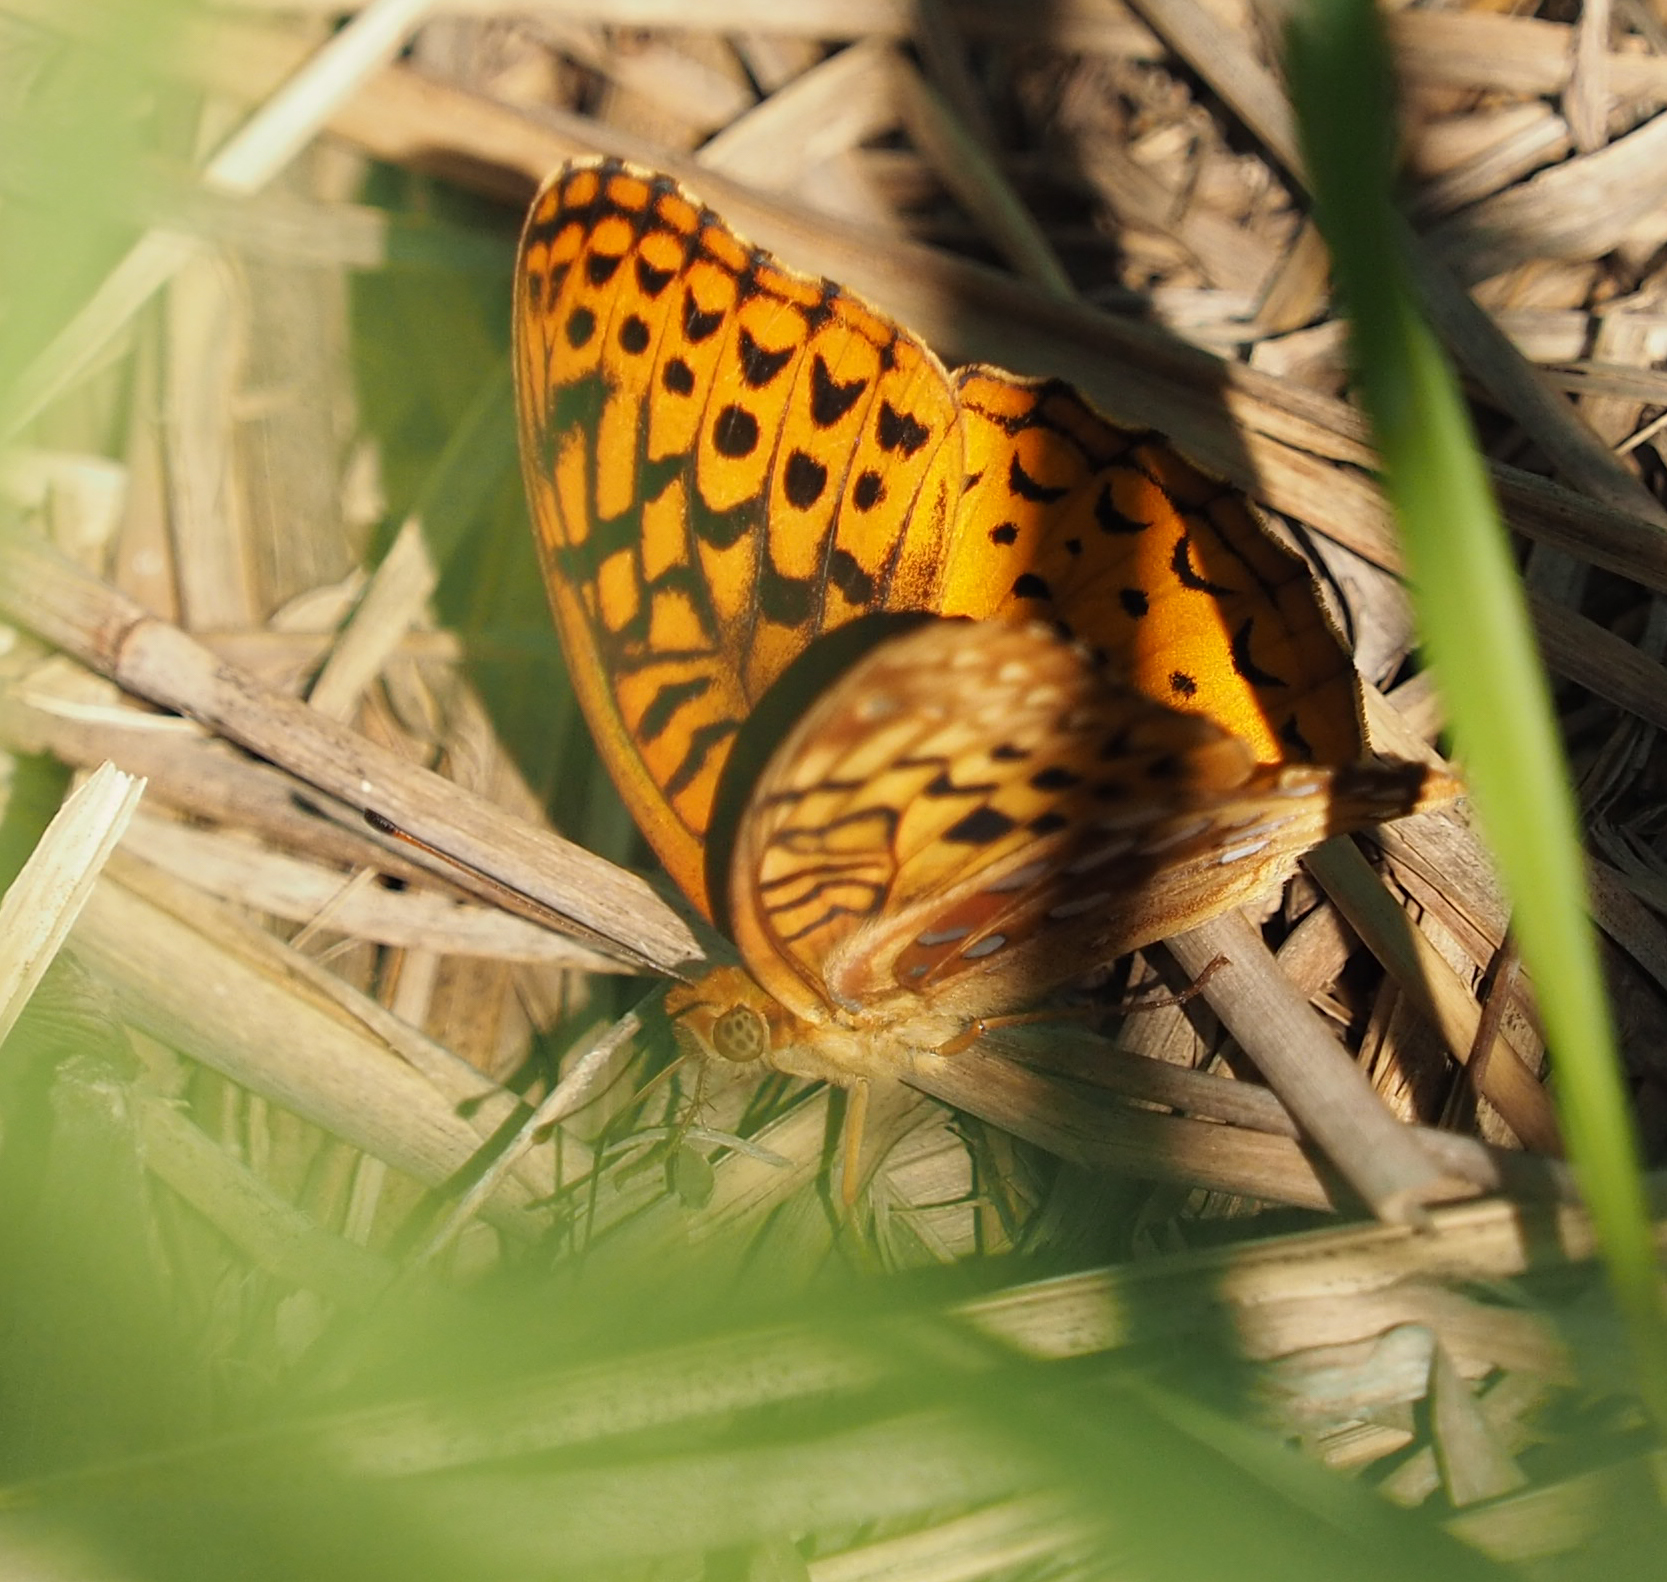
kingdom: Animalia
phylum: Arthropoda
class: Insecta
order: Lepidoptera
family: Nymphalidae
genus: Speyeria
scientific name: Speyeria cybele
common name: Great spangled fritillary
